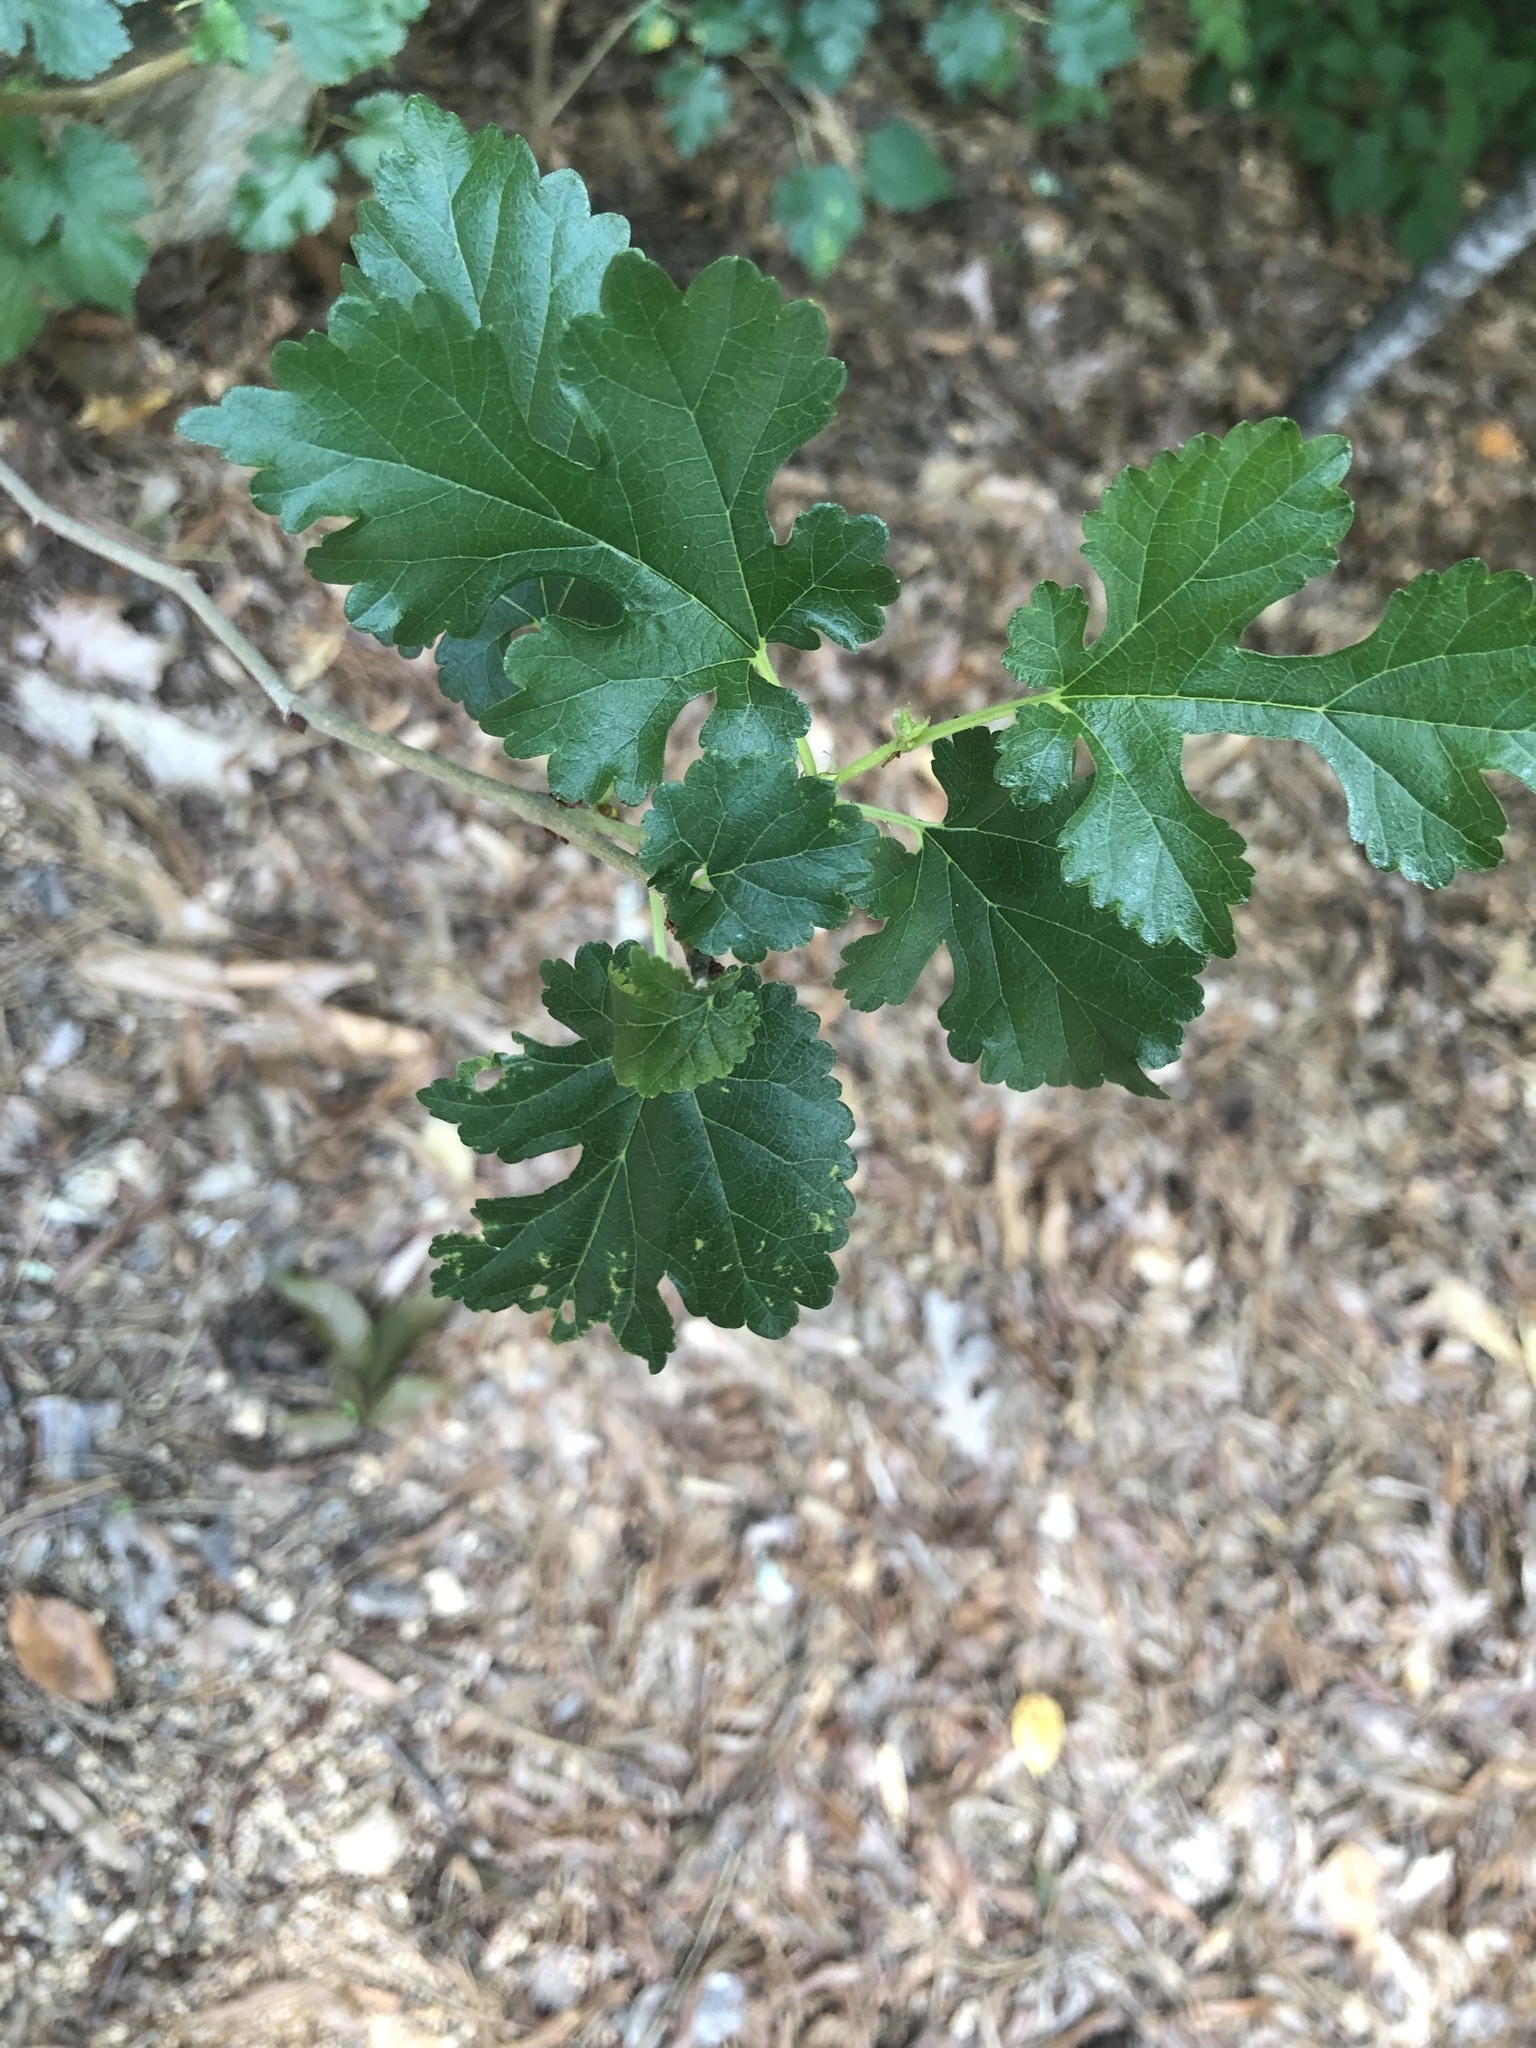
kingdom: Plantae
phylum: Tracheophyta
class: Magnoliopsida
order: Rosales
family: Moraceae
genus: Morus
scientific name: Morus alba
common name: White mulberry
